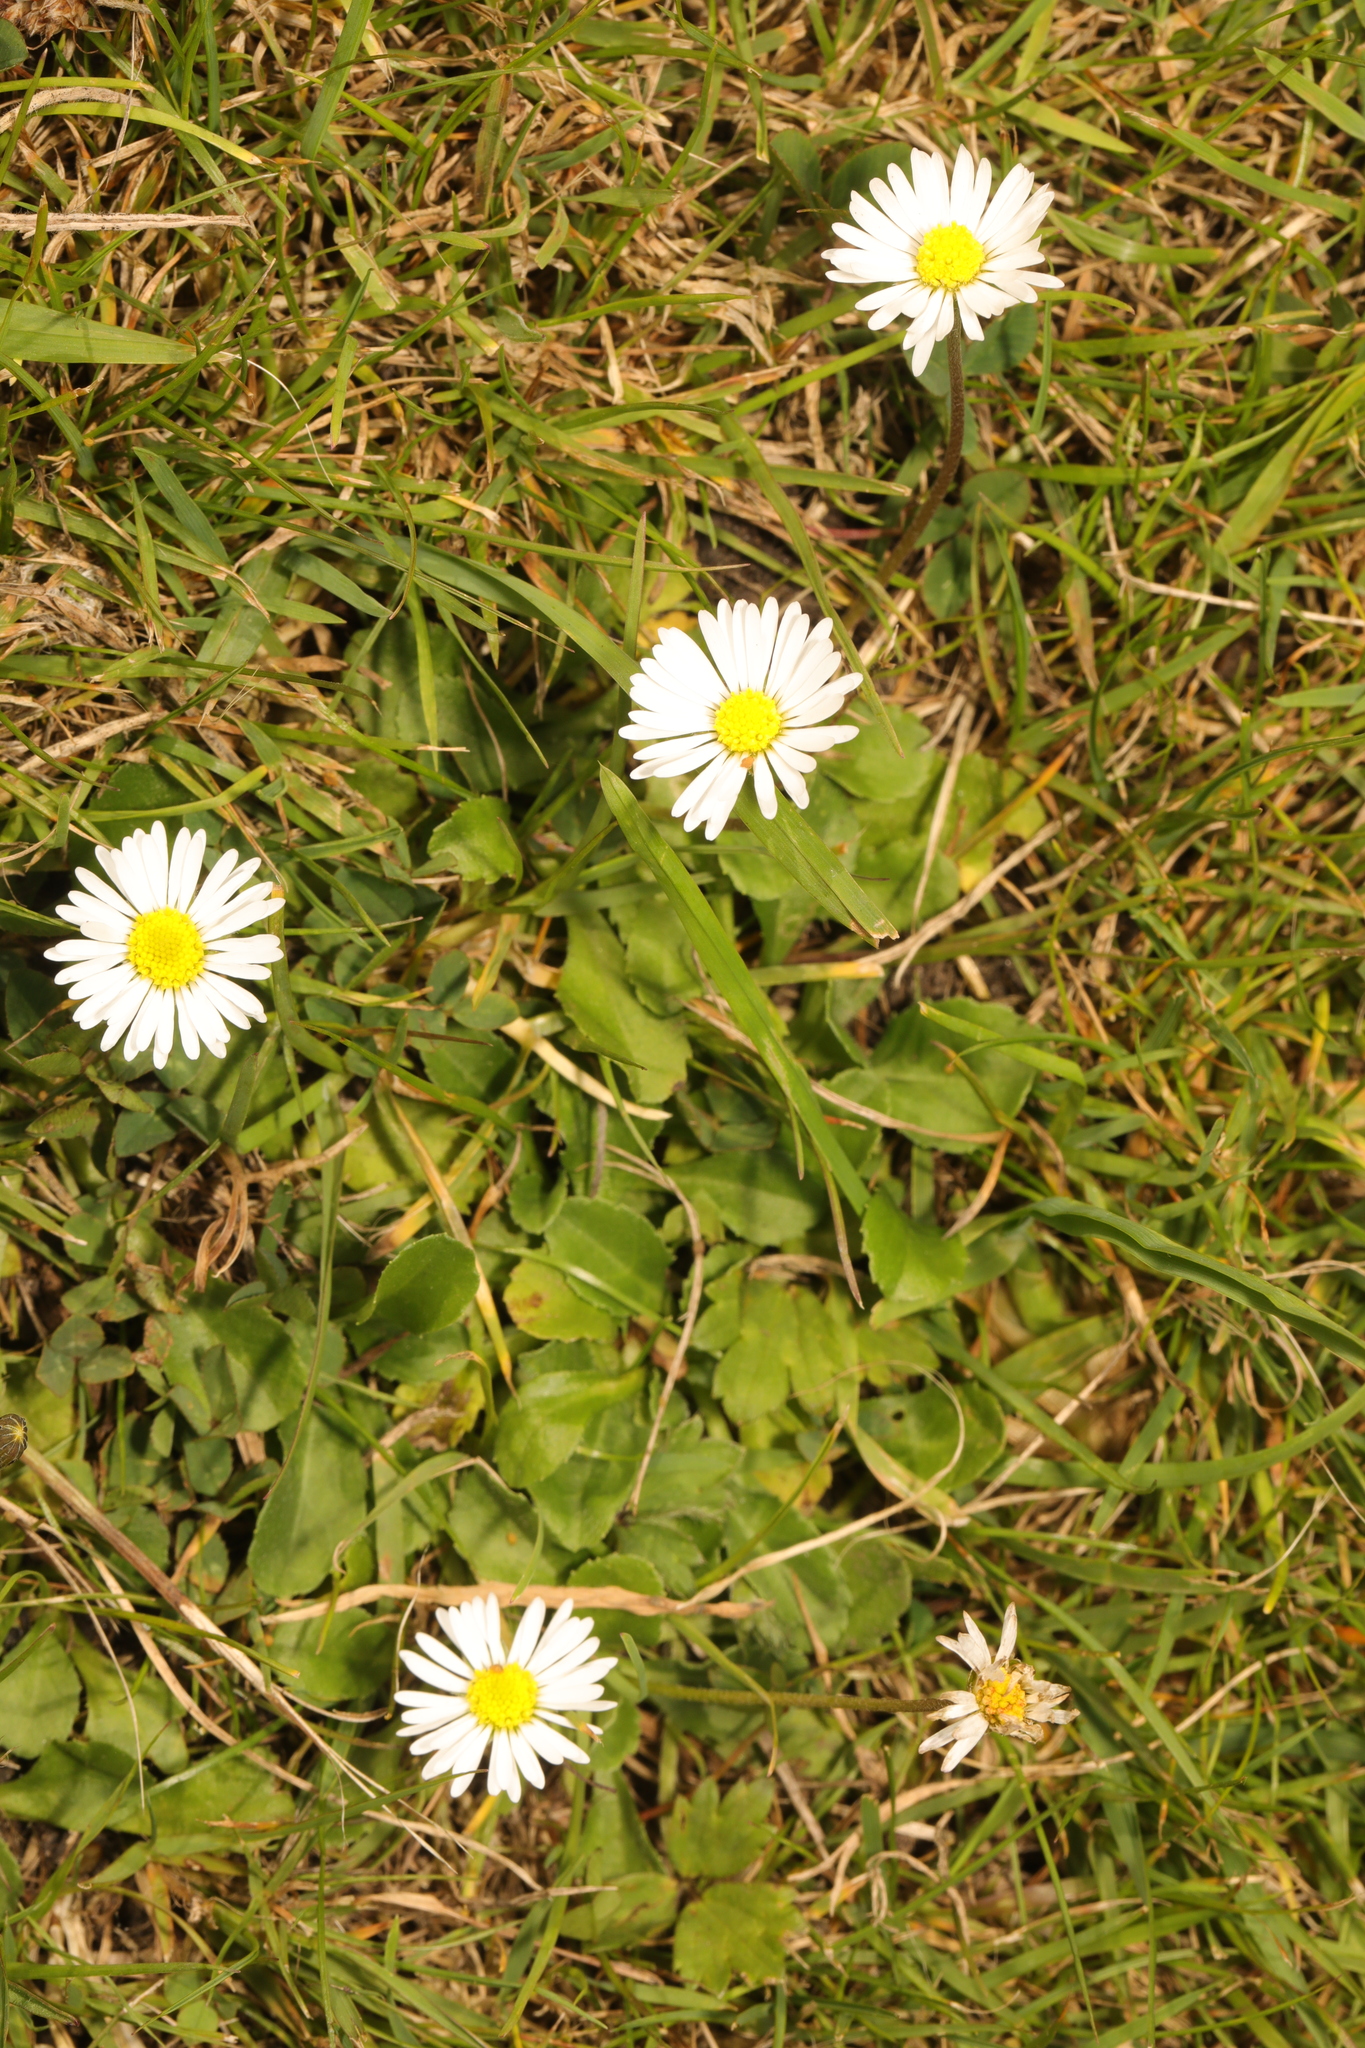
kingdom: Plantae
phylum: Tracheophyta
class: Magnoliopsida
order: Asterales
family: Asteraceae
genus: Bellis
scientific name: Bellis perennis
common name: Lawndaisy
